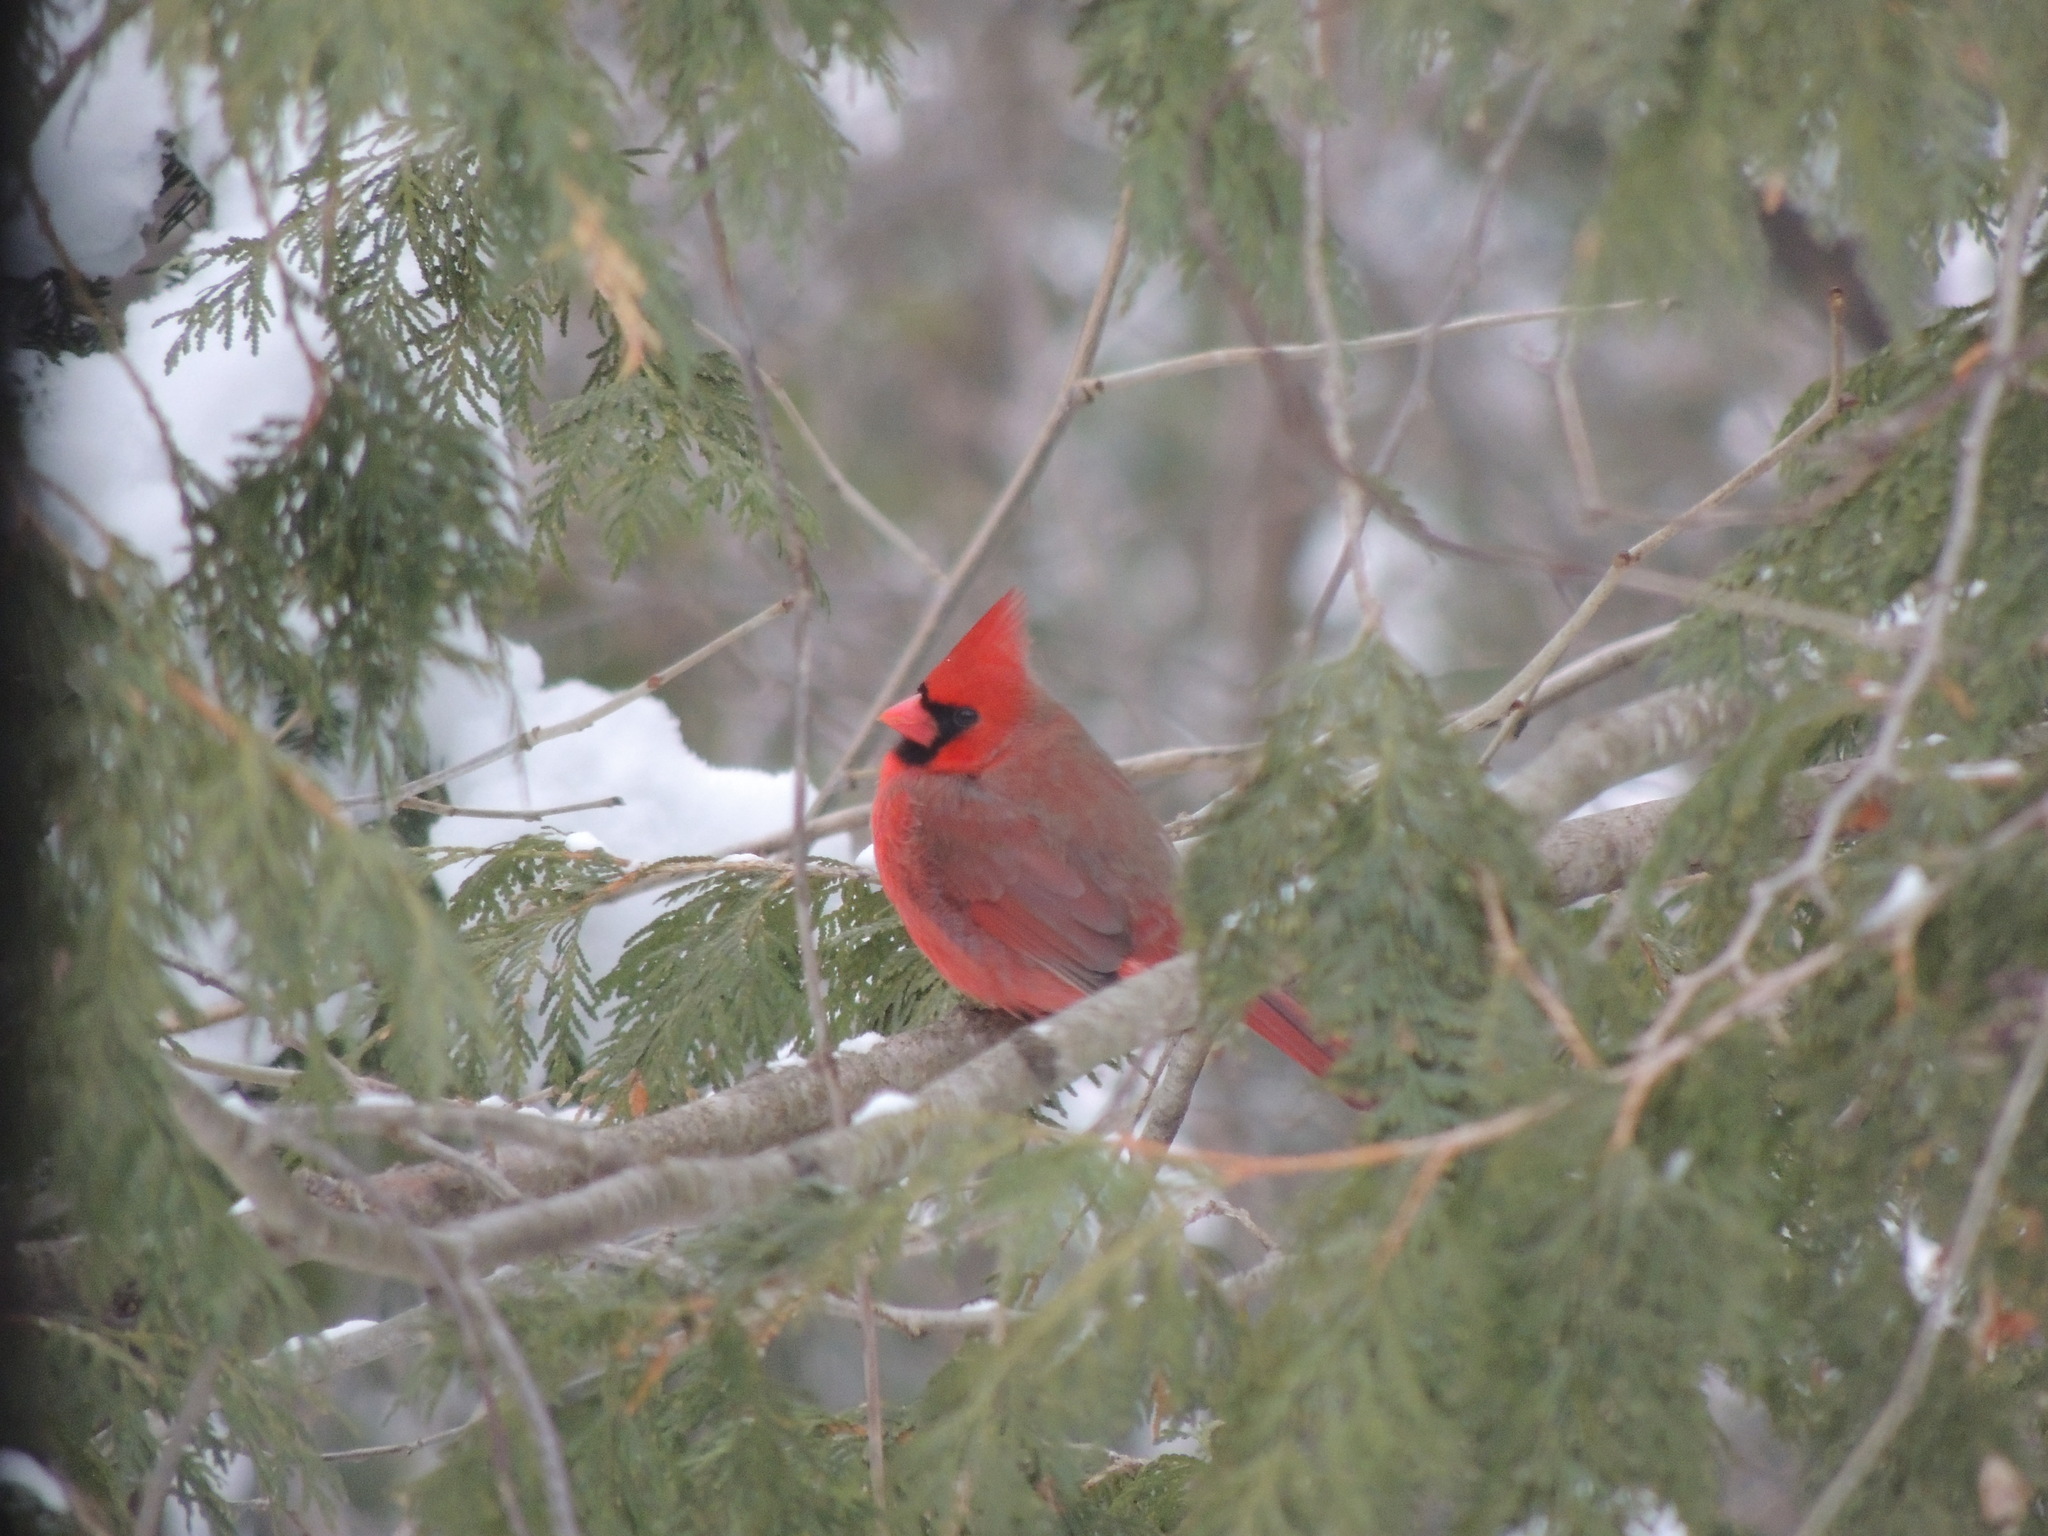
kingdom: Animalia
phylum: Chordata
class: Aves
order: Passeriformes
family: Cardinalidae
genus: Cardinalis
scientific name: Cardinalis cardinalis
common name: Northern cardinal
